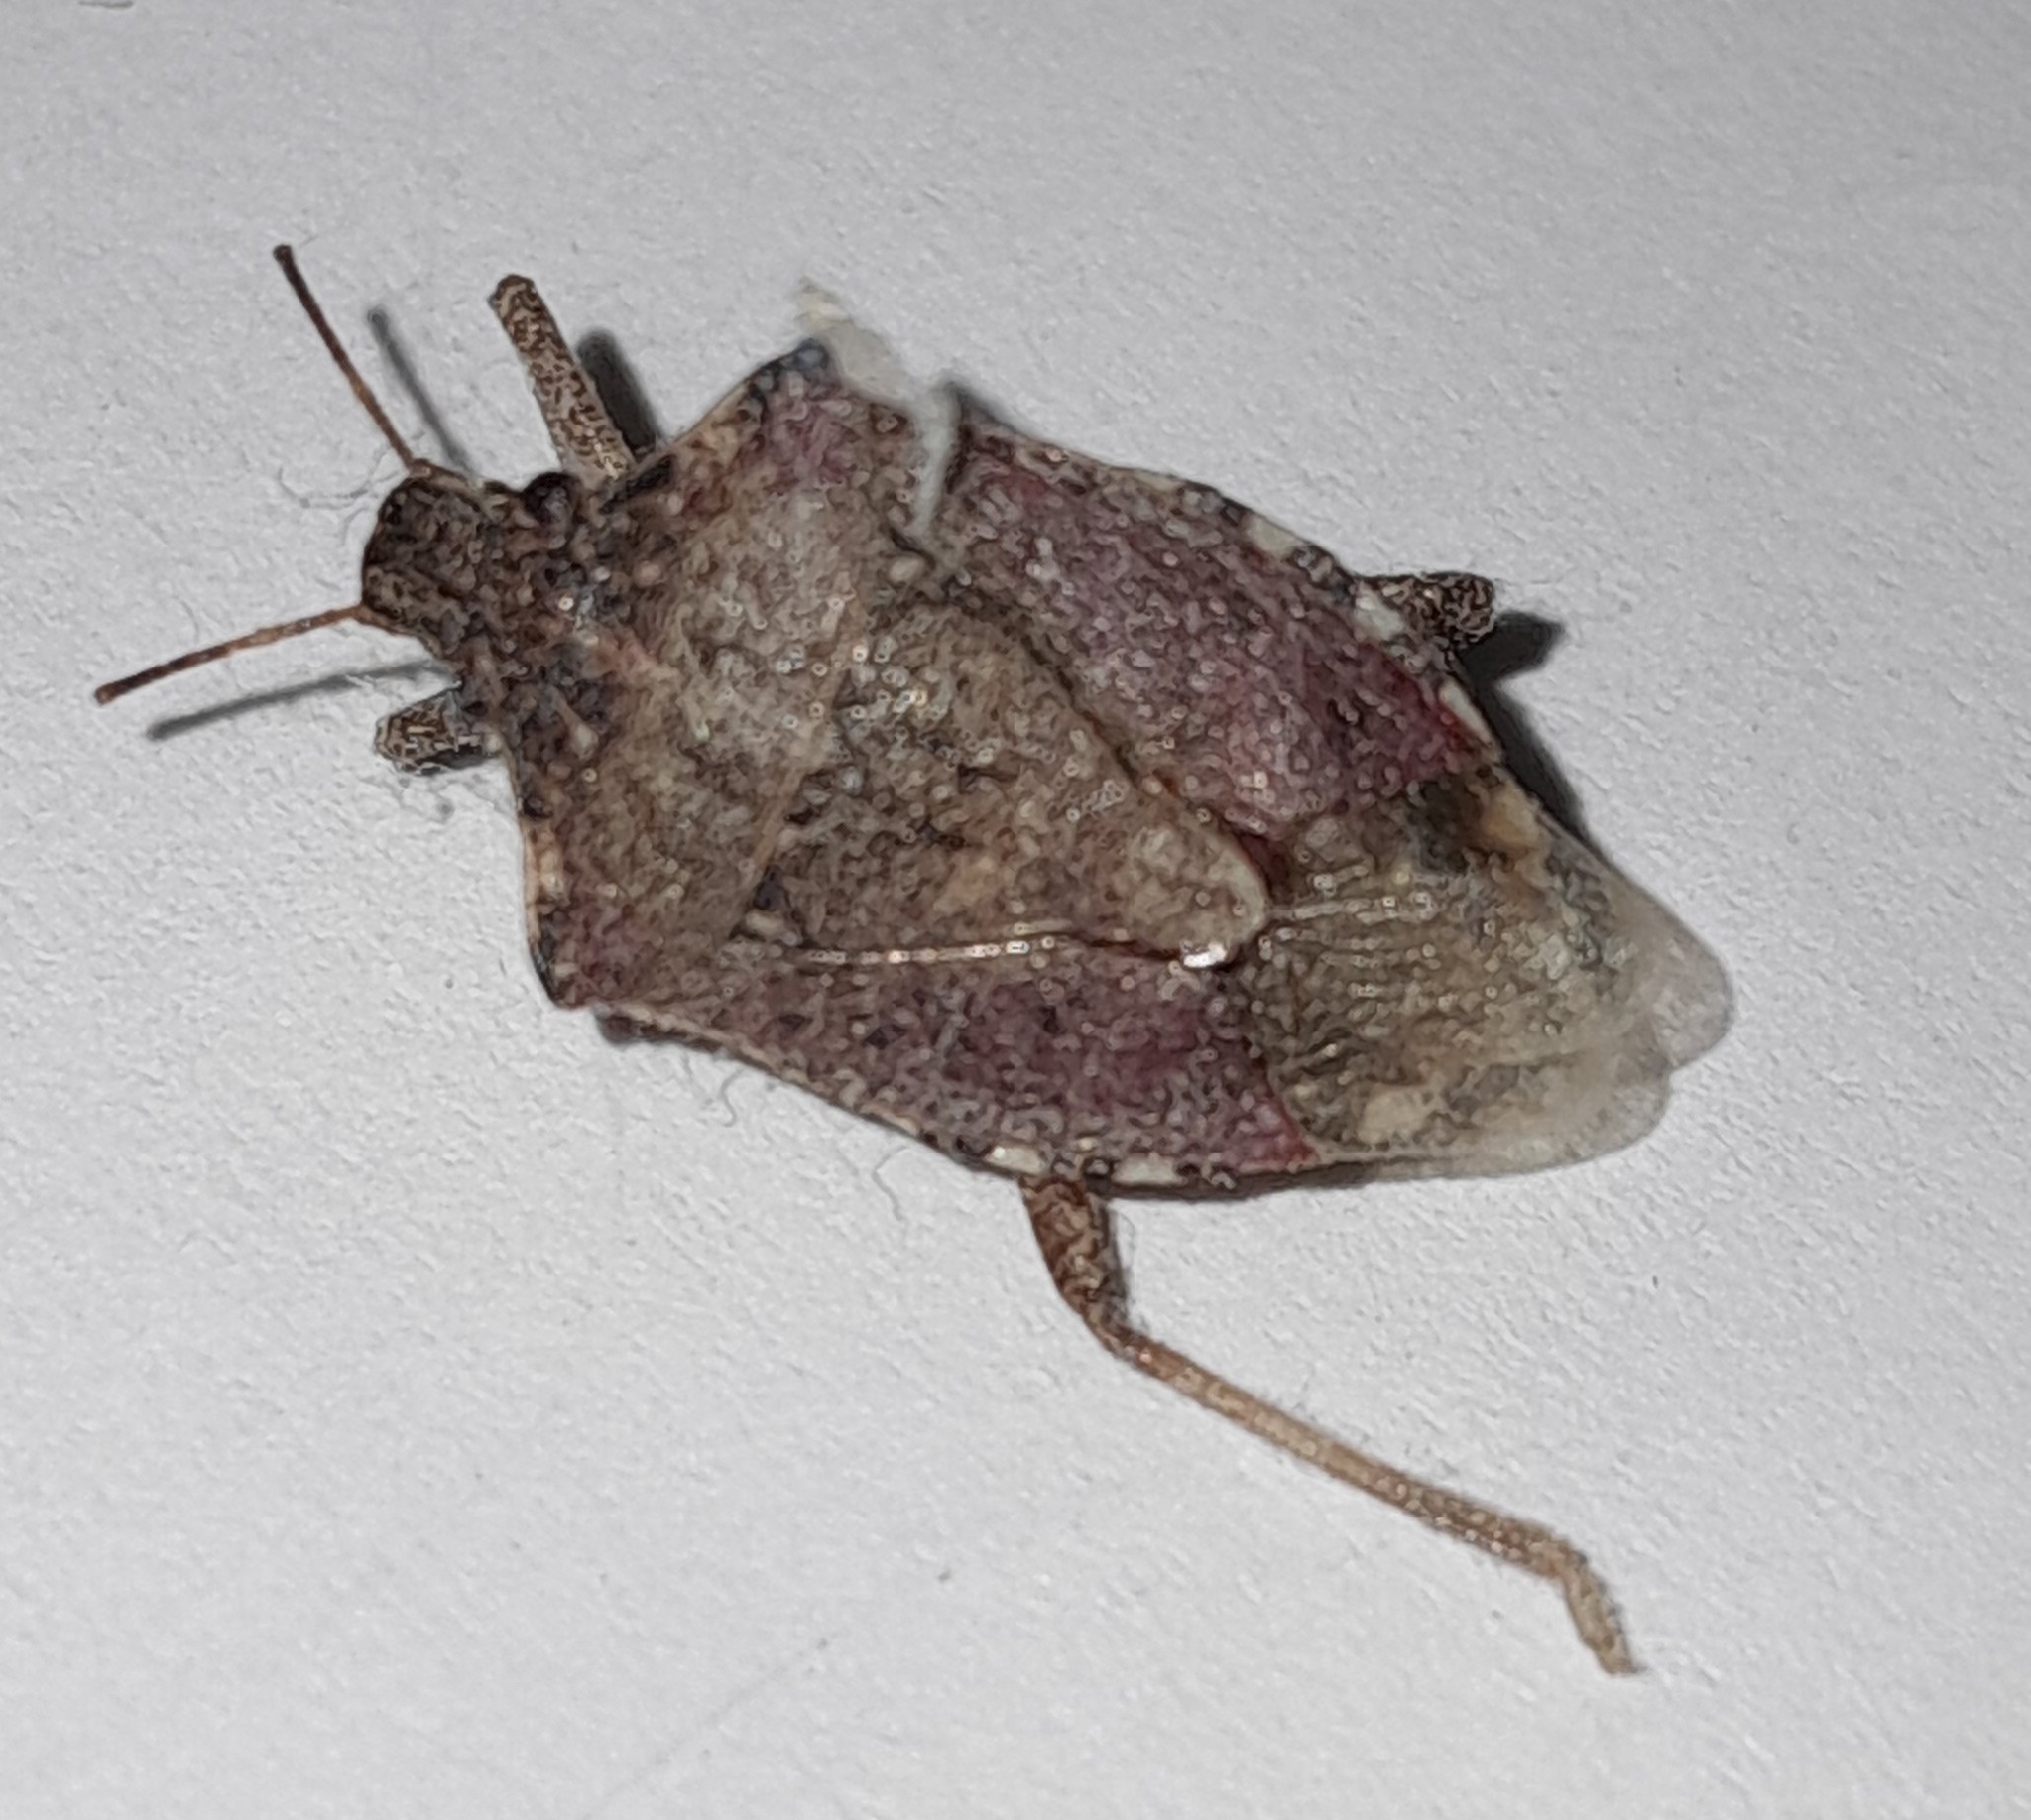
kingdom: Animalia
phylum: Arthropoda
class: Insecta
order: Hemiptera
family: Pentatomidae
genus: Halyomorpha
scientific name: Halyomorpha halys
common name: Brown marmorated stink bug
